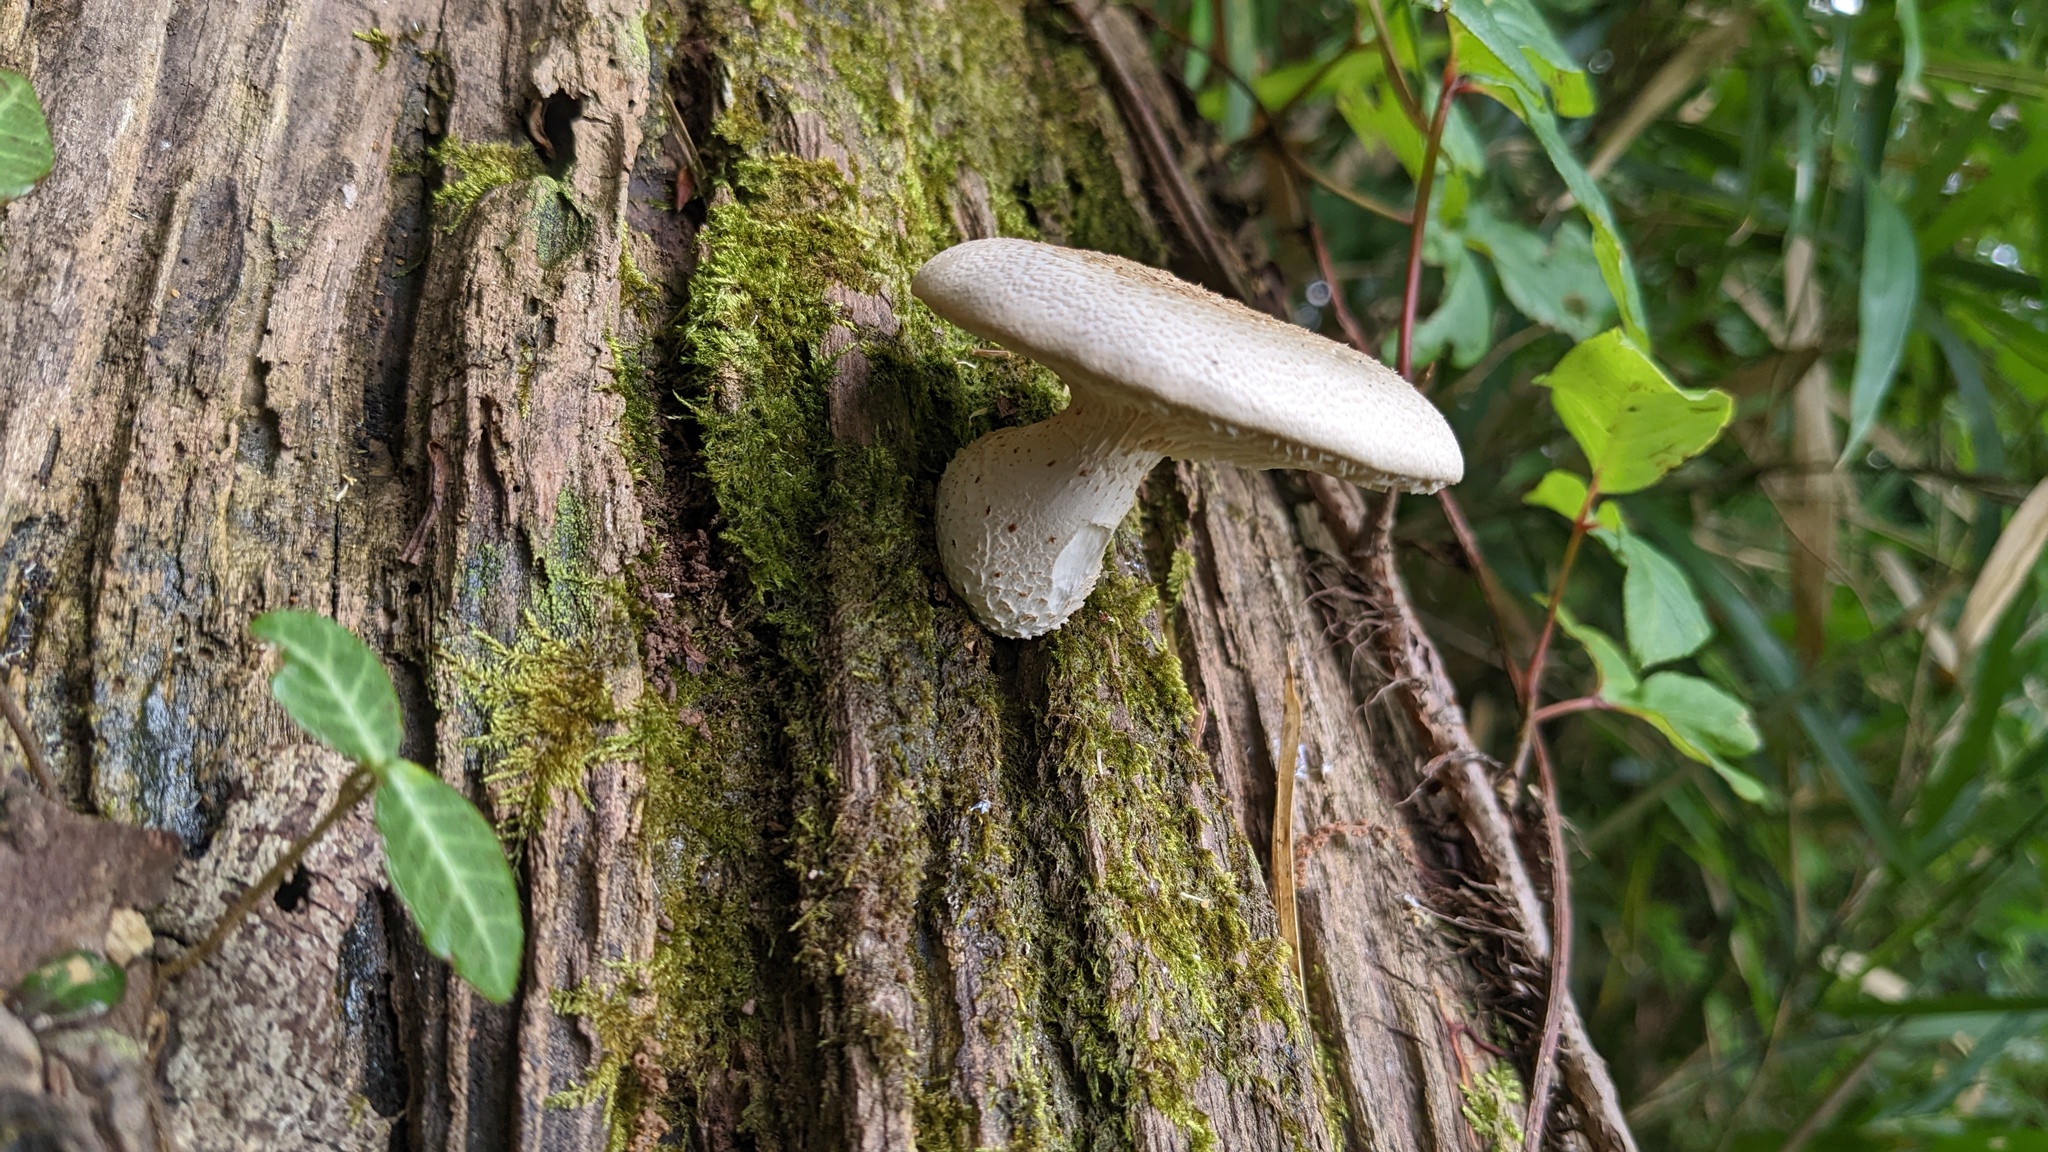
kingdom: Fungi
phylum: Basidiomycota
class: Agaricomycetes
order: Gloeophyllales
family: Gloeophyllaceae
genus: Neolentinus
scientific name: Neolentinus lepideus
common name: Scaly sawgill
